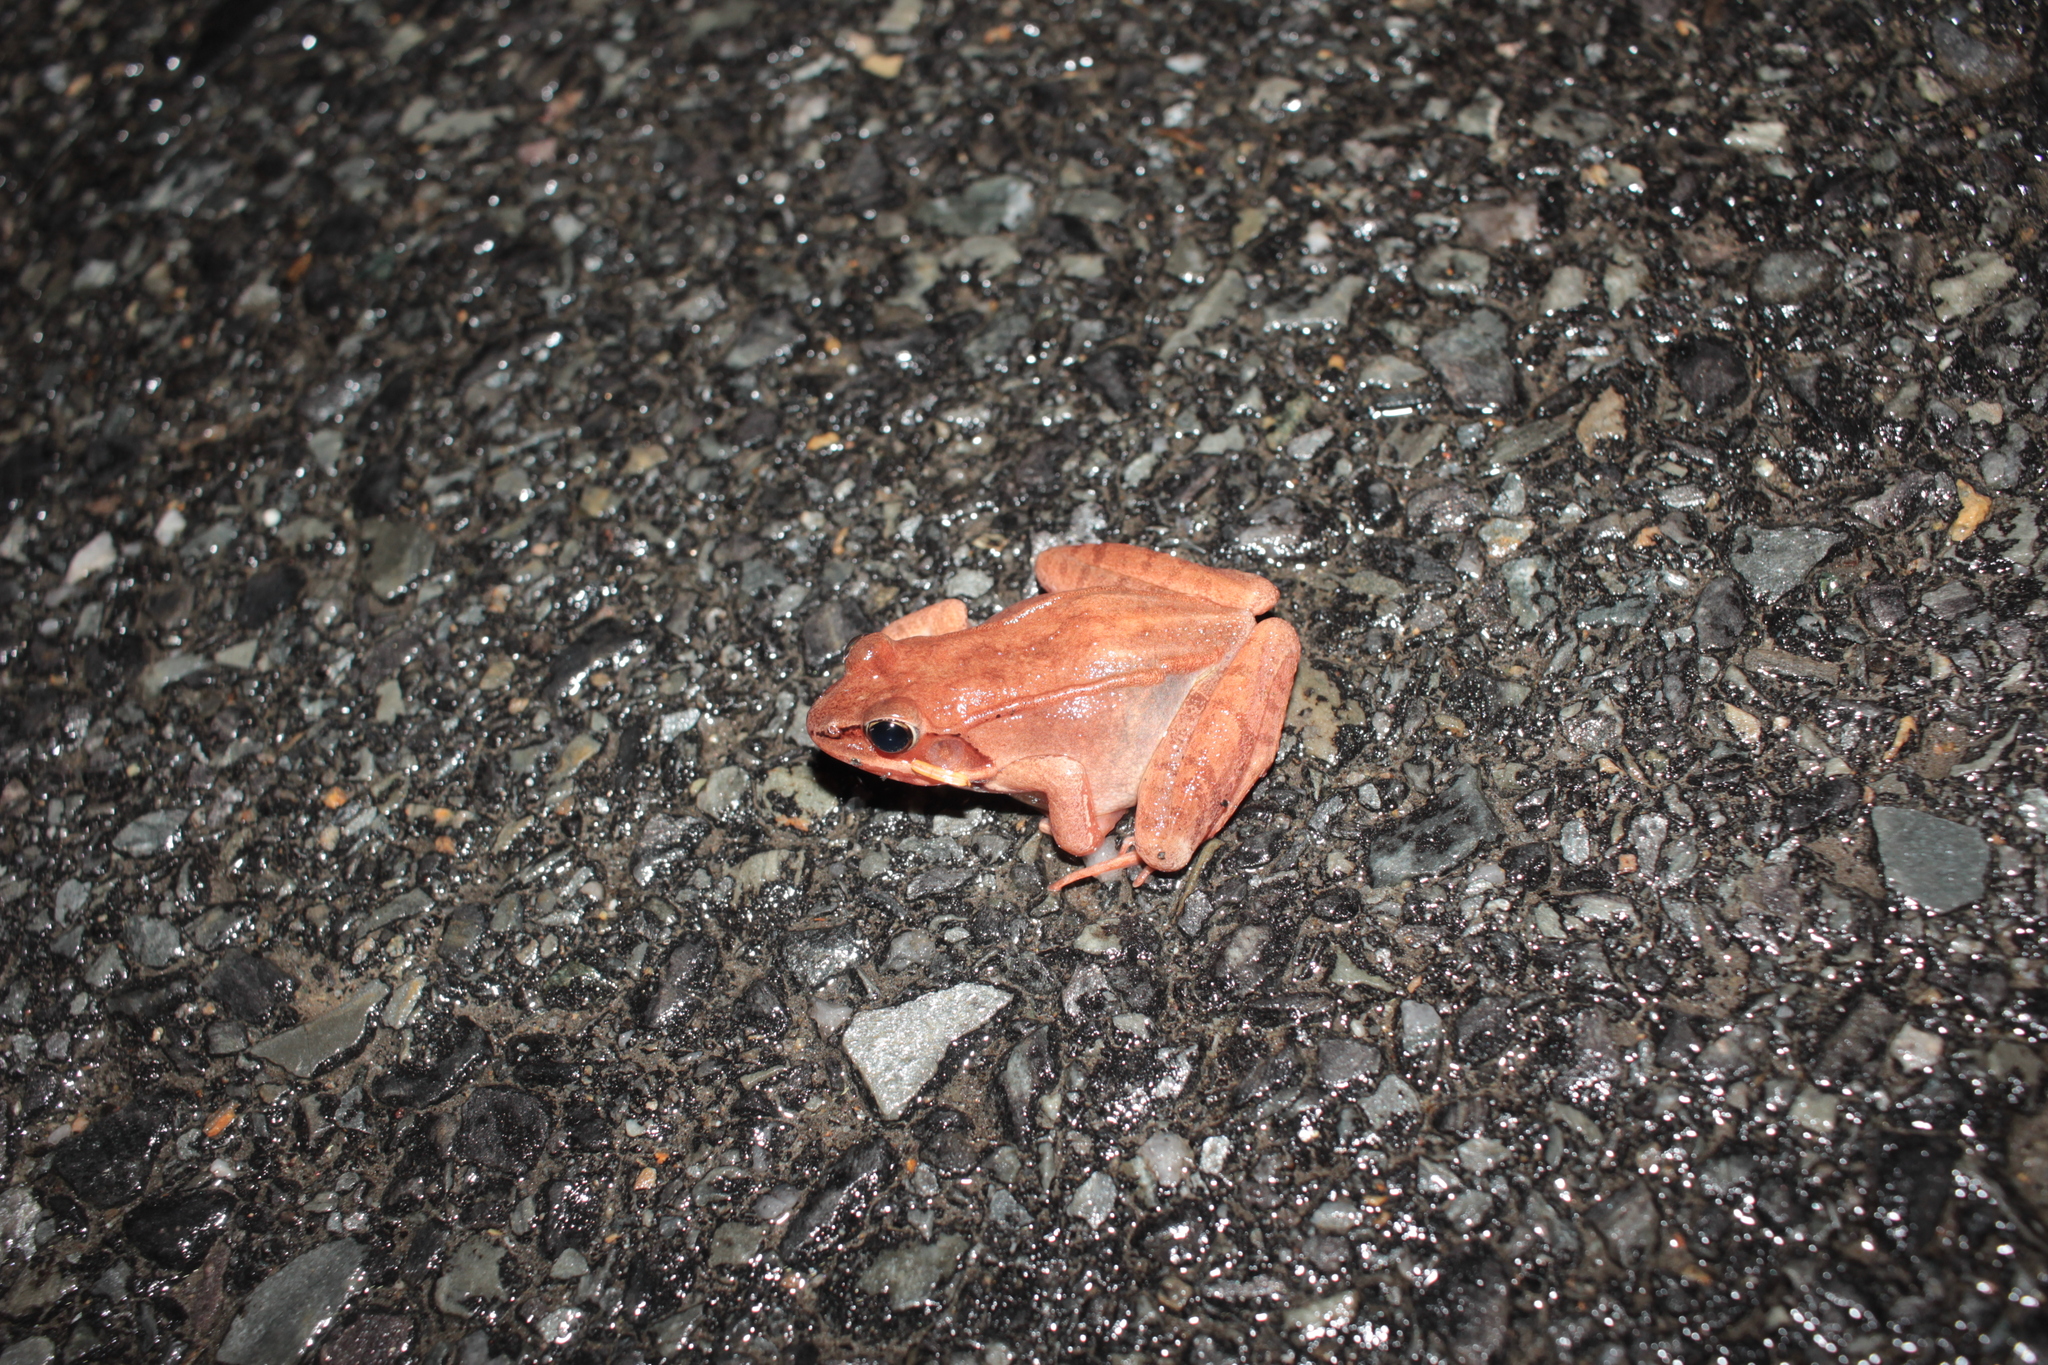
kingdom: Animalia
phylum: Chordata
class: Amphibia
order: Anura
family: Ranidae
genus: Lithobates
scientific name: Lithobates sylvaticus
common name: Wood frog
